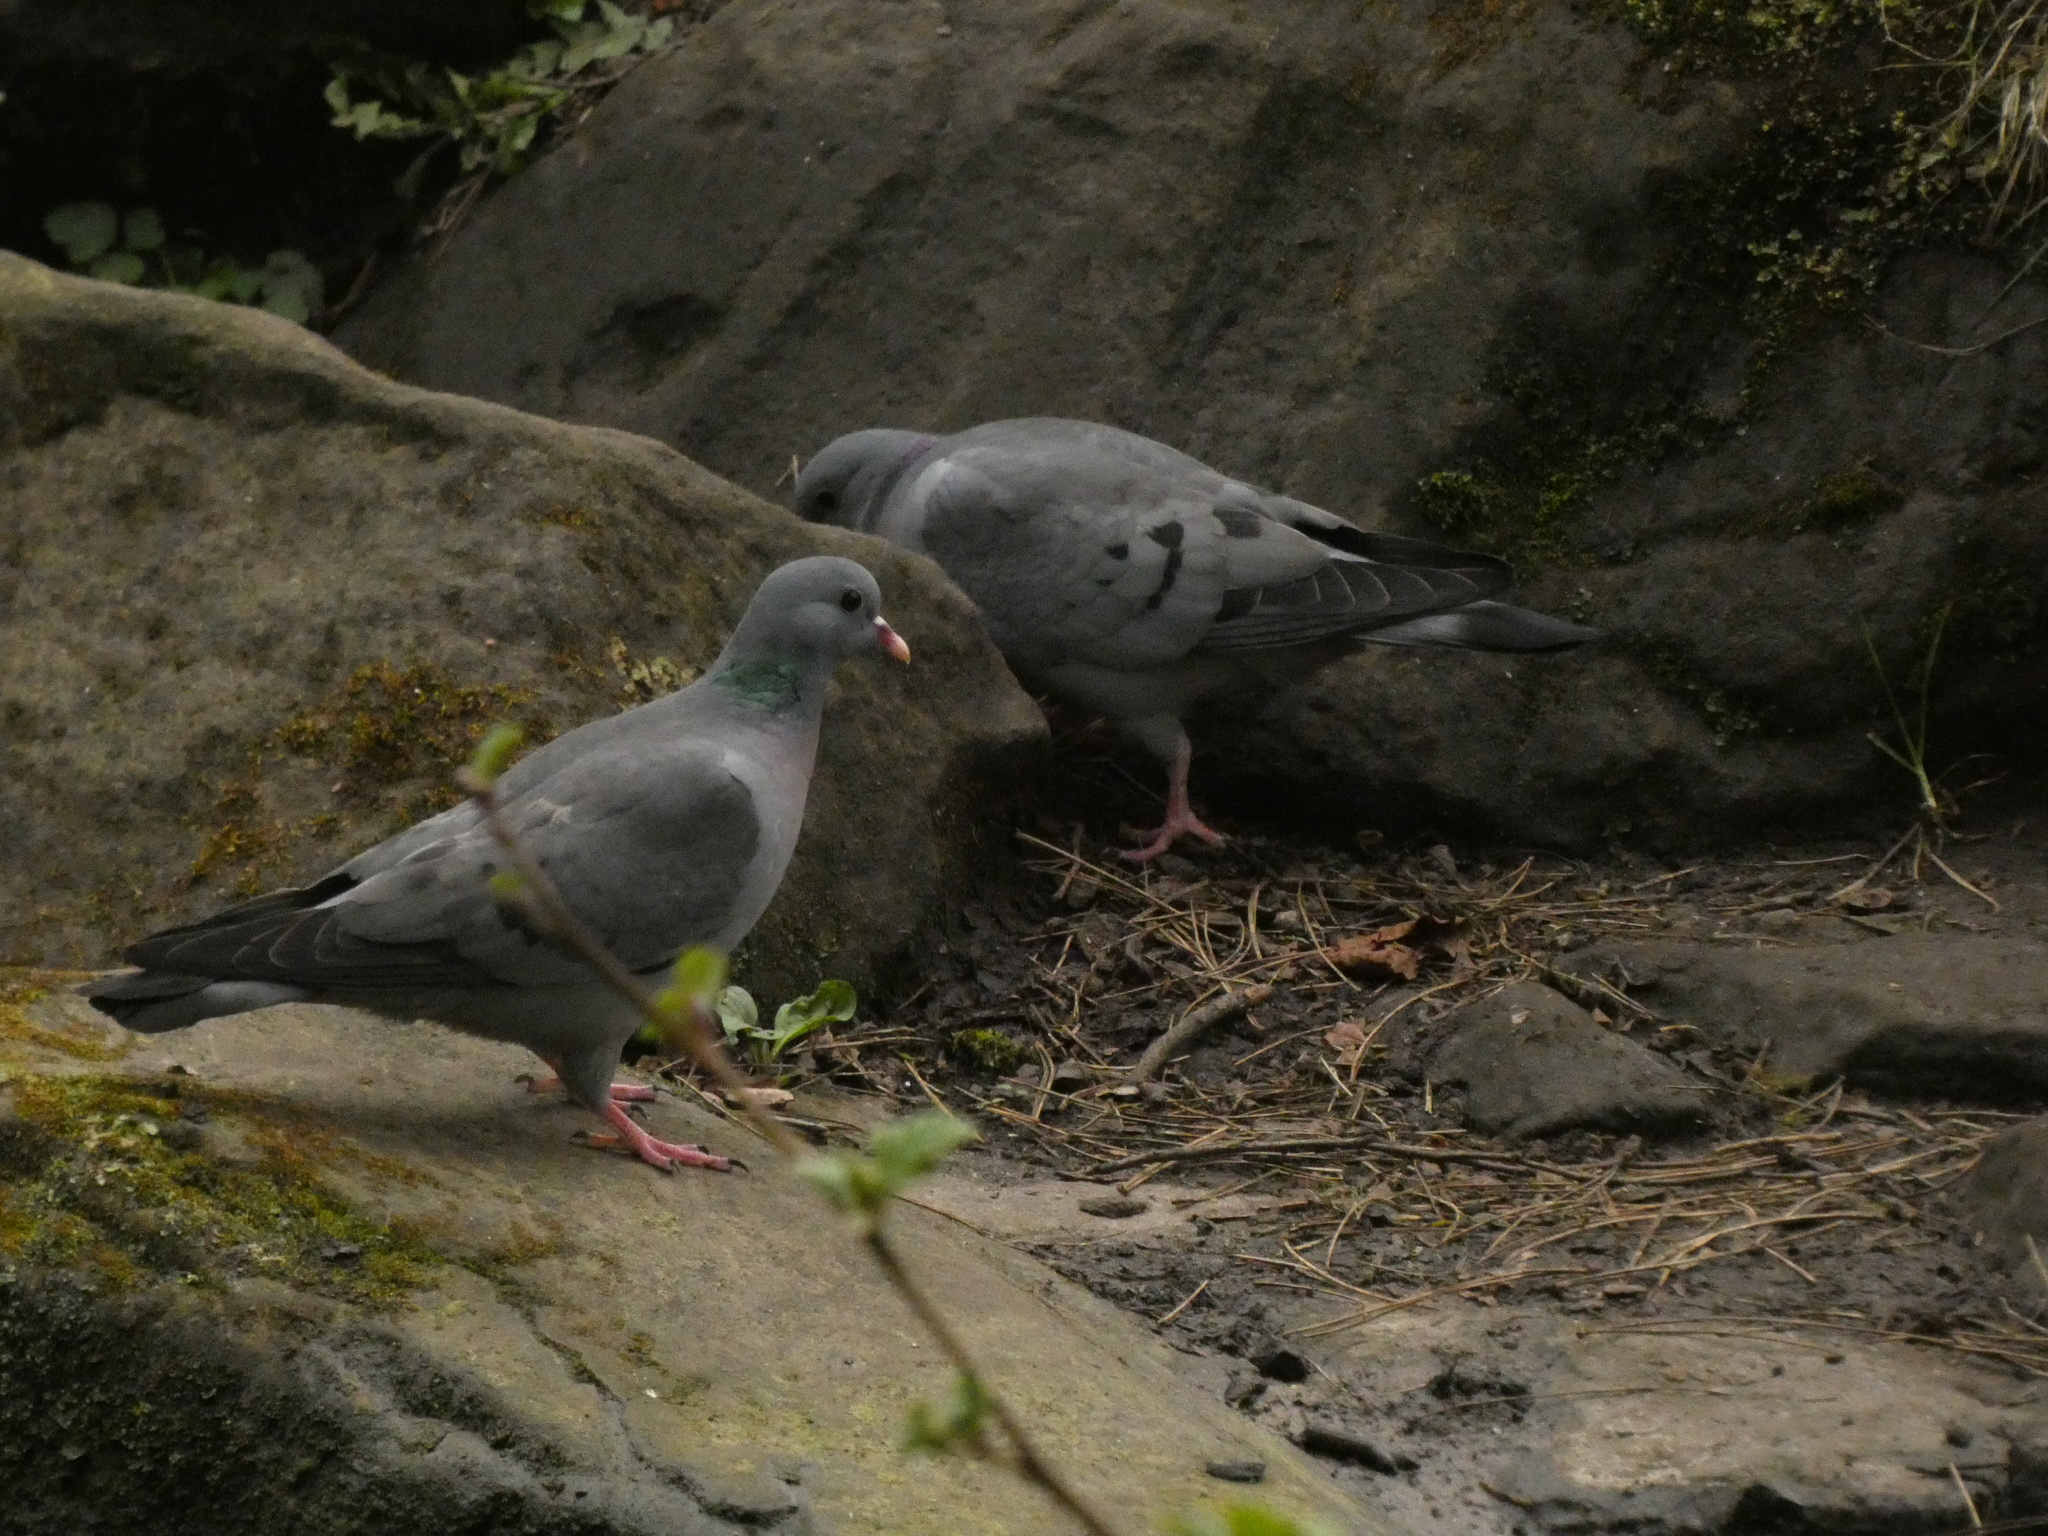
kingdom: Animalia
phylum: Chordata
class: Aves
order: Columbiformes
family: Columbidae
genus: Columba
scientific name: Columba oenas
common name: Stock dove
